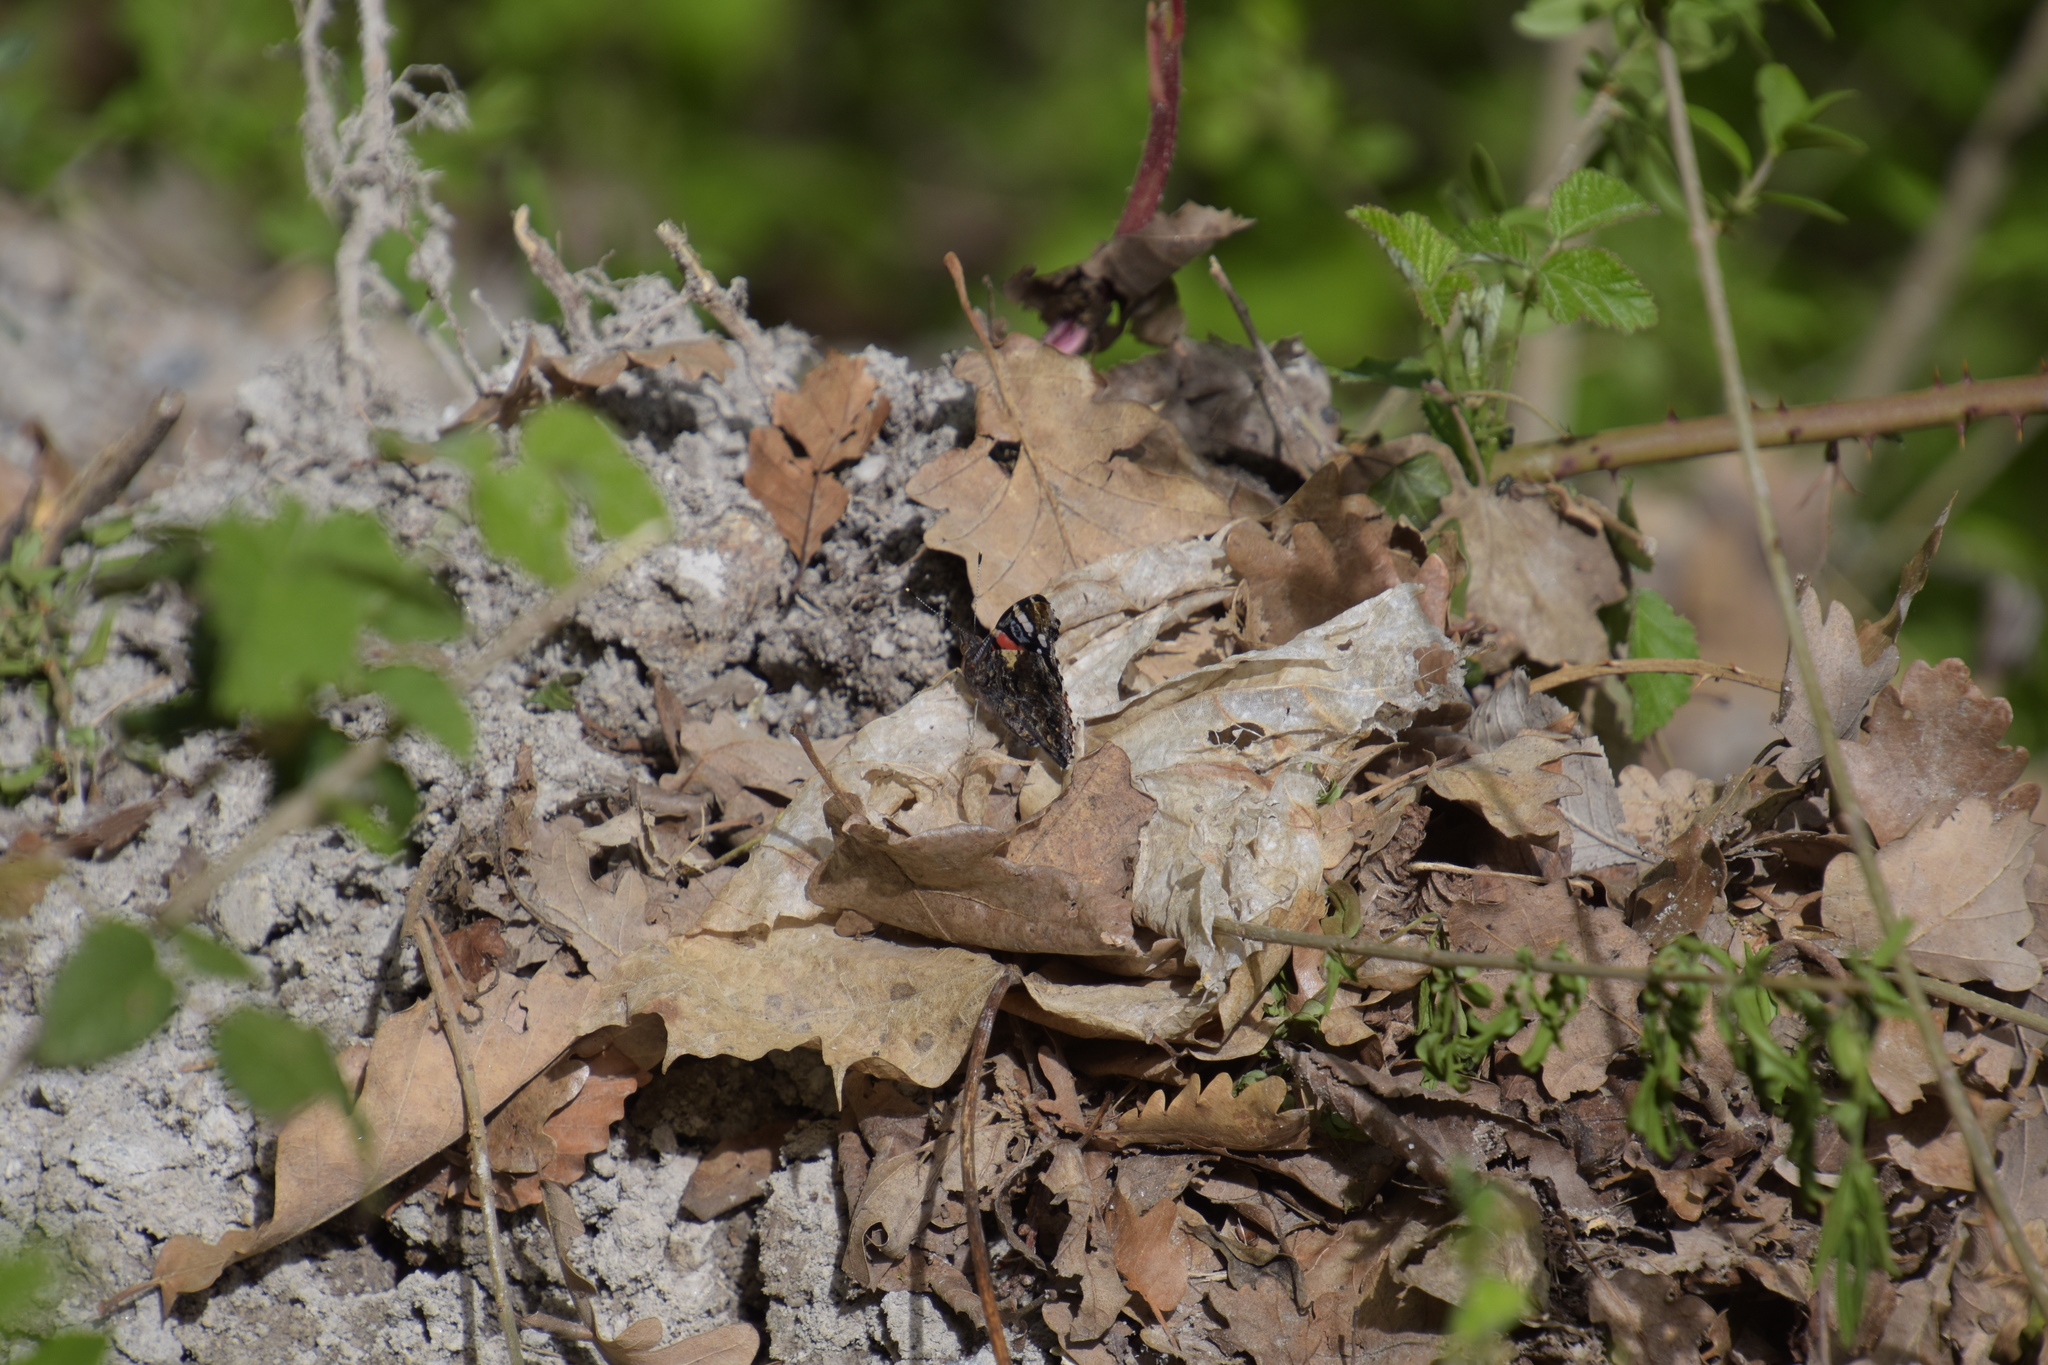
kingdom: Animalia
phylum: Arthropoda
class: Insecta
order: Lepidoptera
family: Nymphalidae
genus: Vanessa
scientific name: Vanessa atalanta
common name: Red admiral
